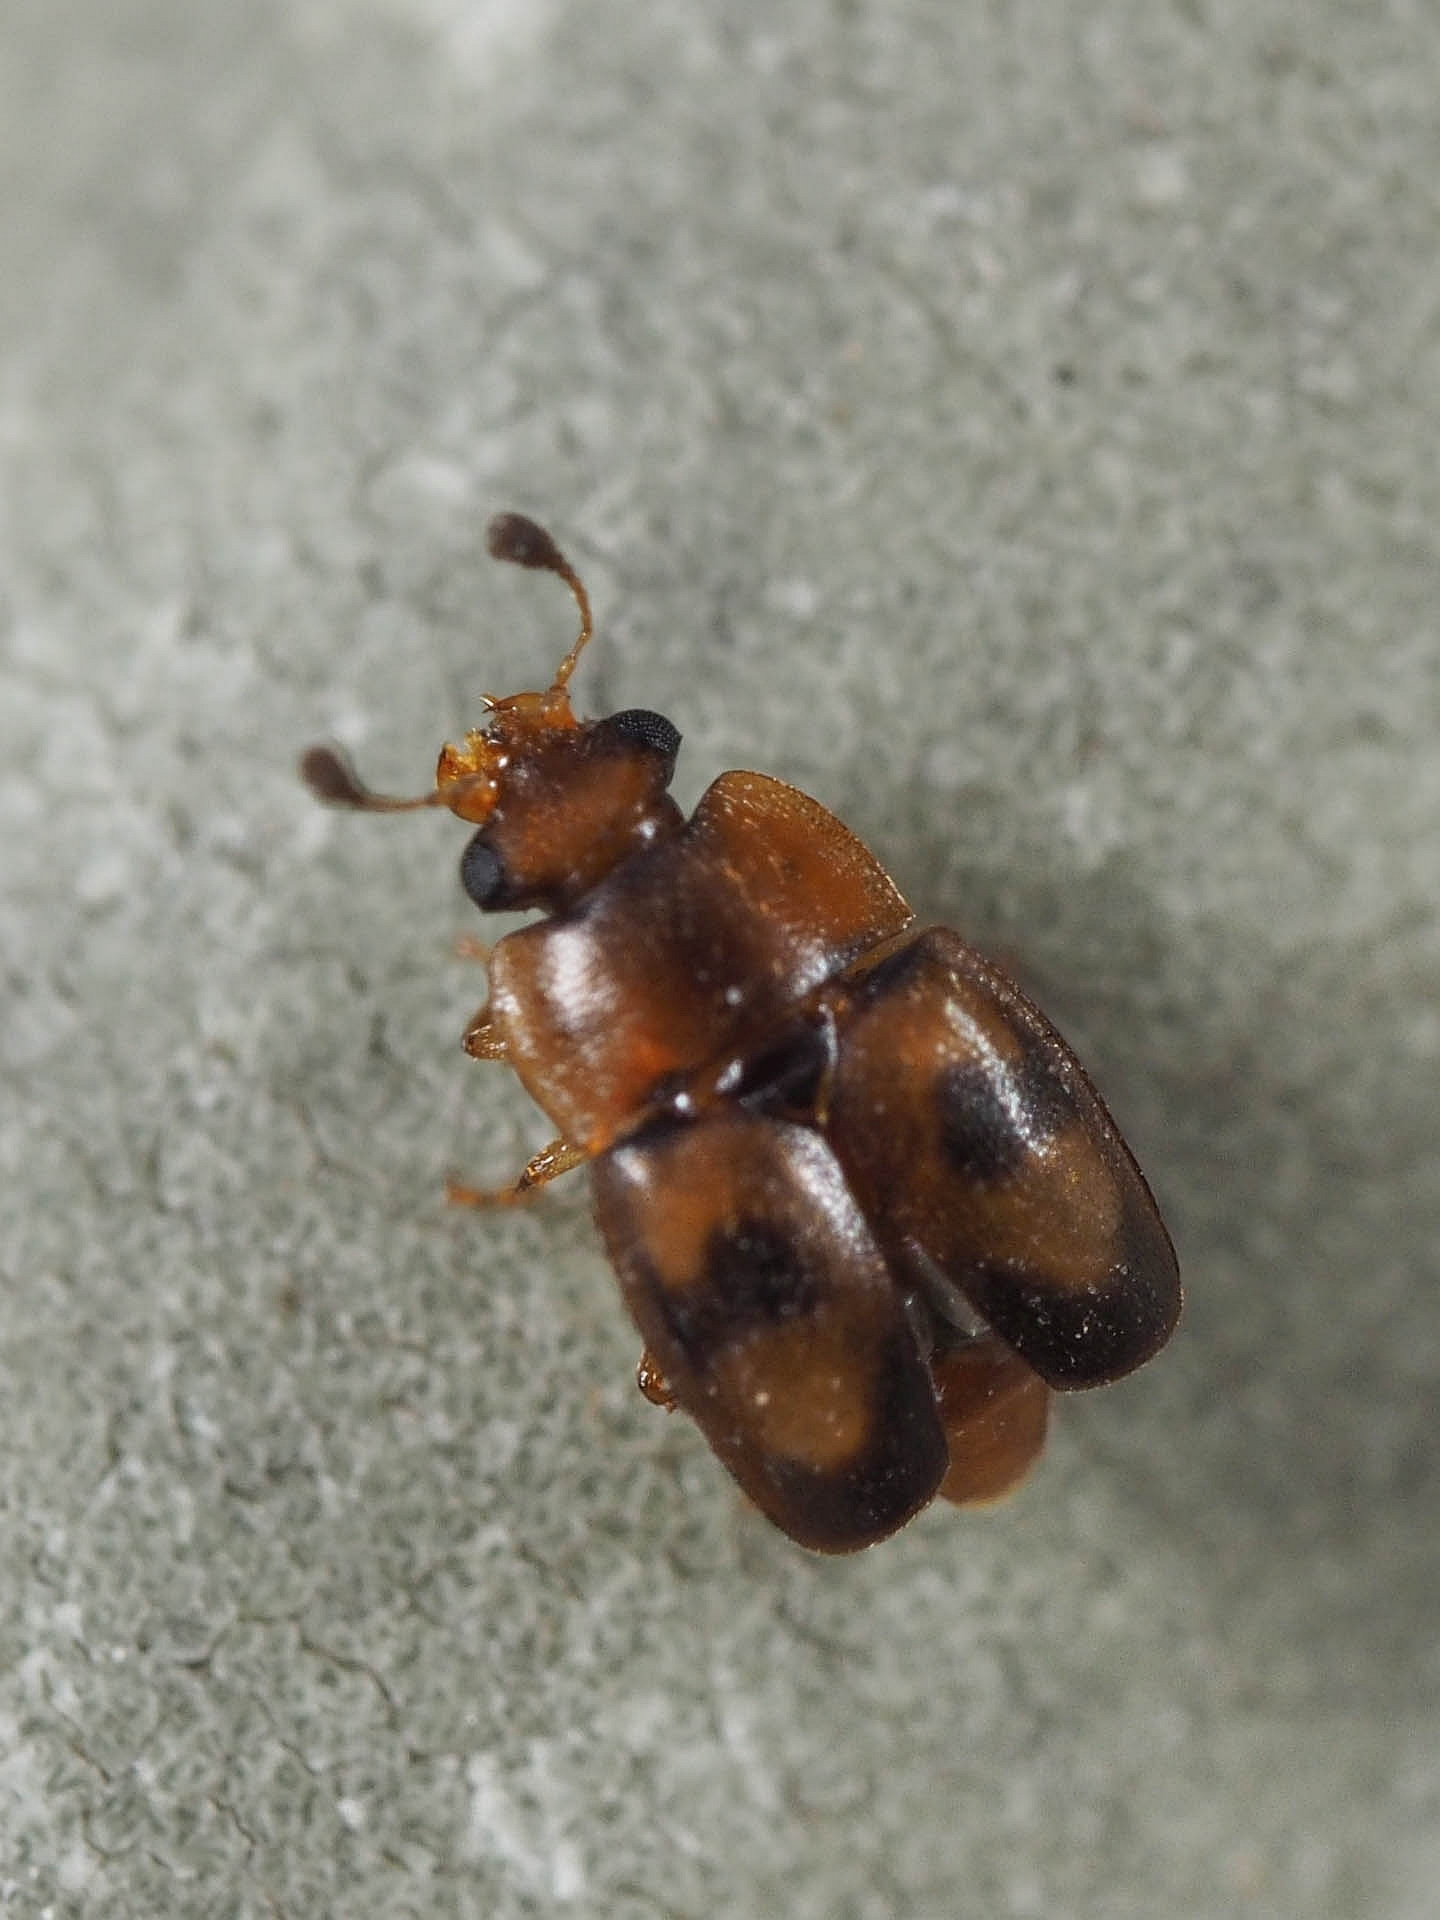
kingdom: Animalia
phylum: Arthropoda
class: Insecta
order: Coleoptera
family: Nitidulidae
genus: Epuraea
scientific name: Epuraea ocularis
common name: Sap beetle
